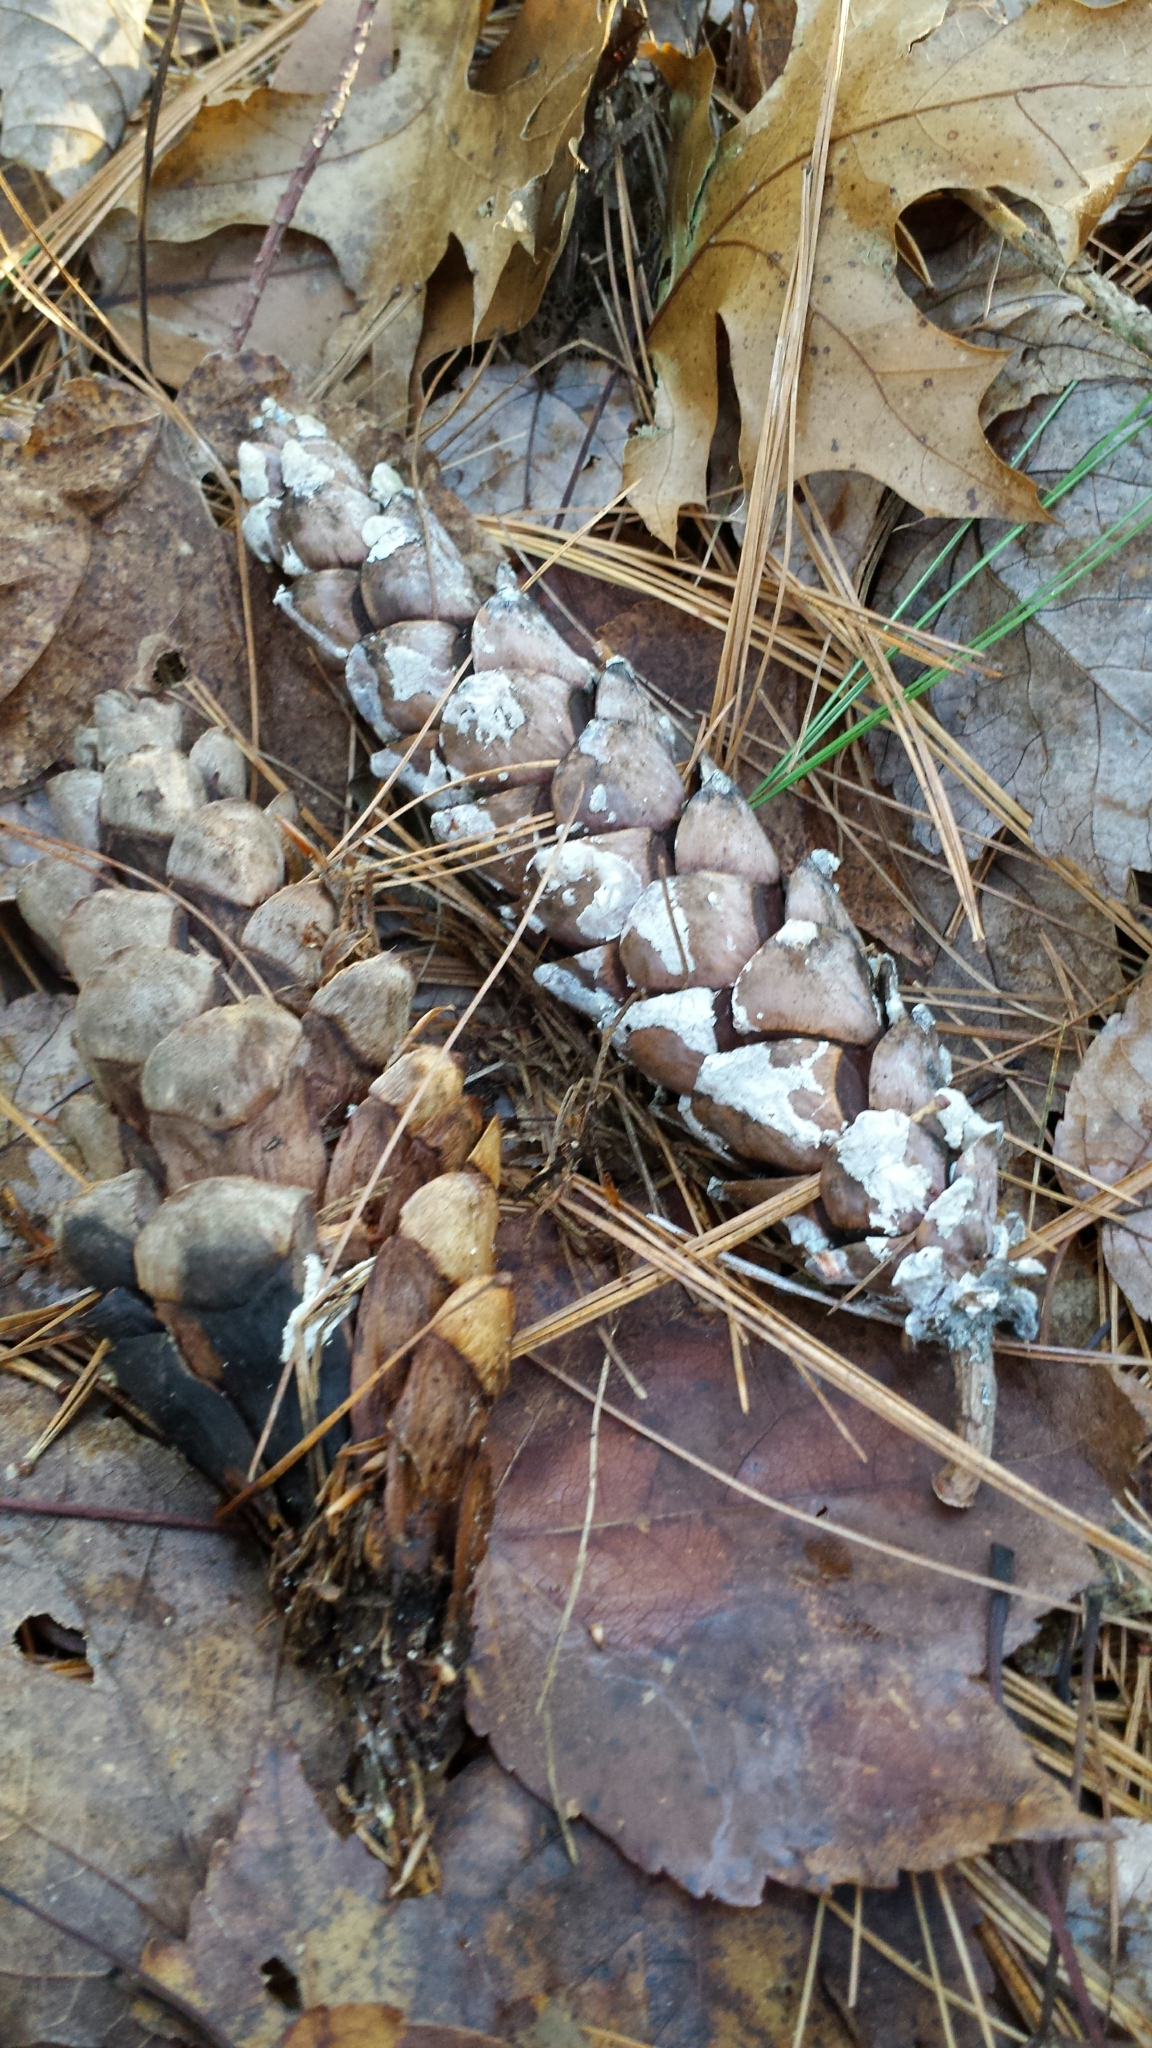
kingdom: Plantae
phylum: Tracheophyta
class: Pinopsida
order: Pinales
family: Pinaceae
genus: Pinus
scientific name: Pinus strobus
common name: Weymouth pine
